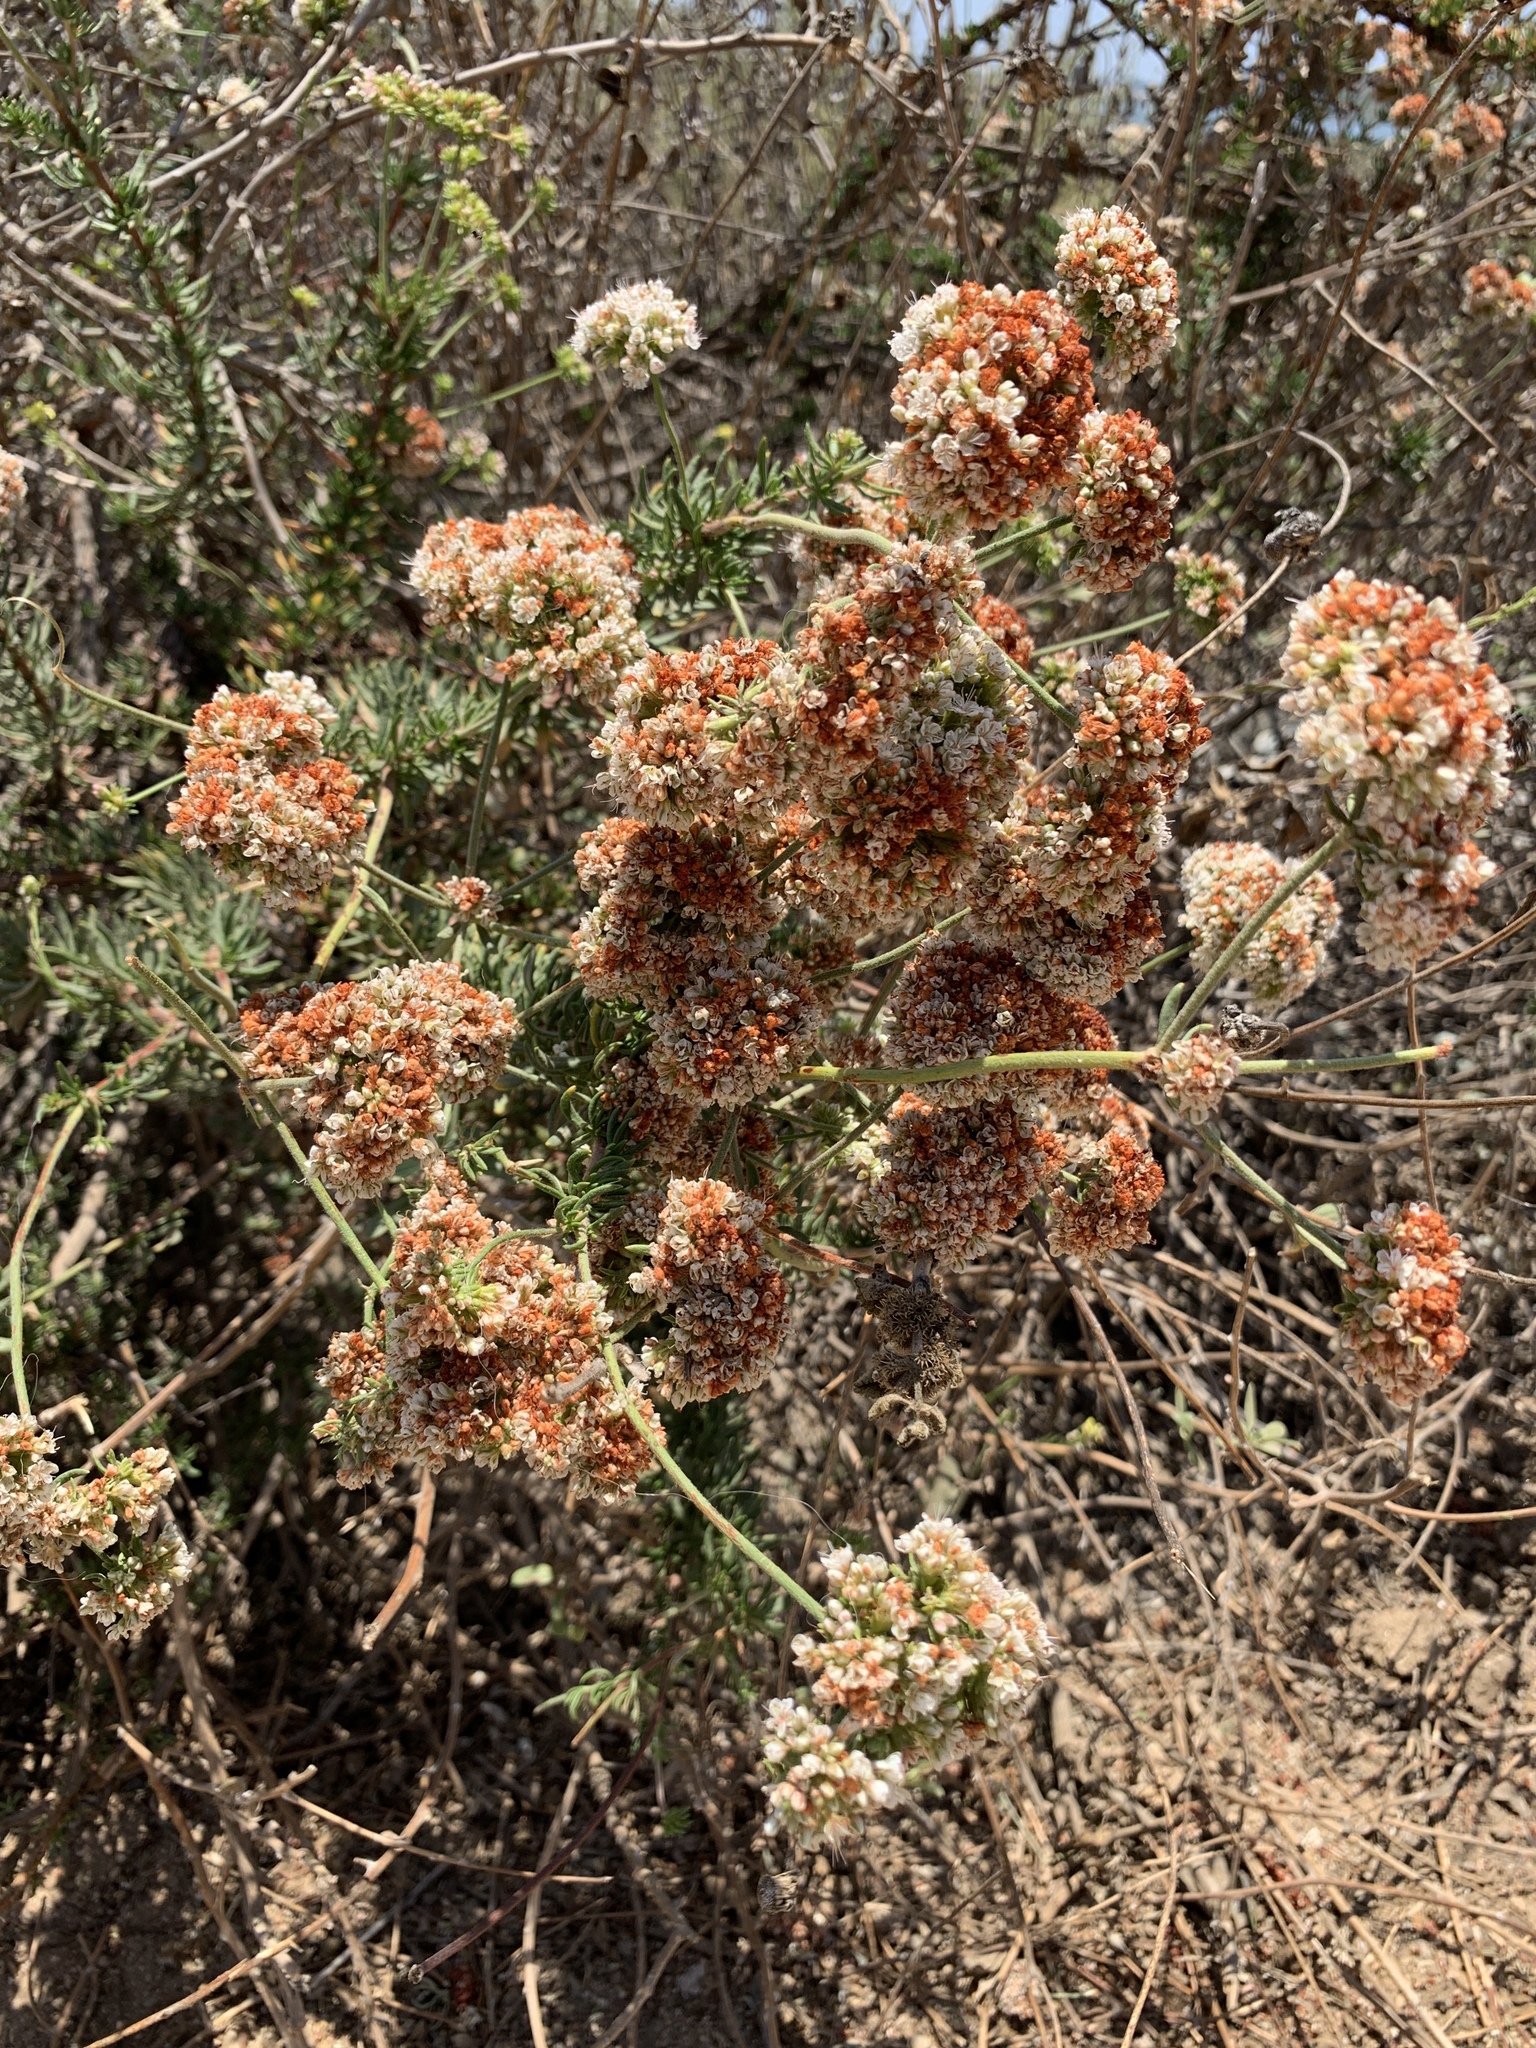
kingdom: Plantae
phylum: Tracheophyta
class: Magnoliopsida
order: Caryophyllales
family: Polygonaceae
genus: Eriogonum
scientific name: Eriogonum fasciculatum
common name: California wild buckwheat
